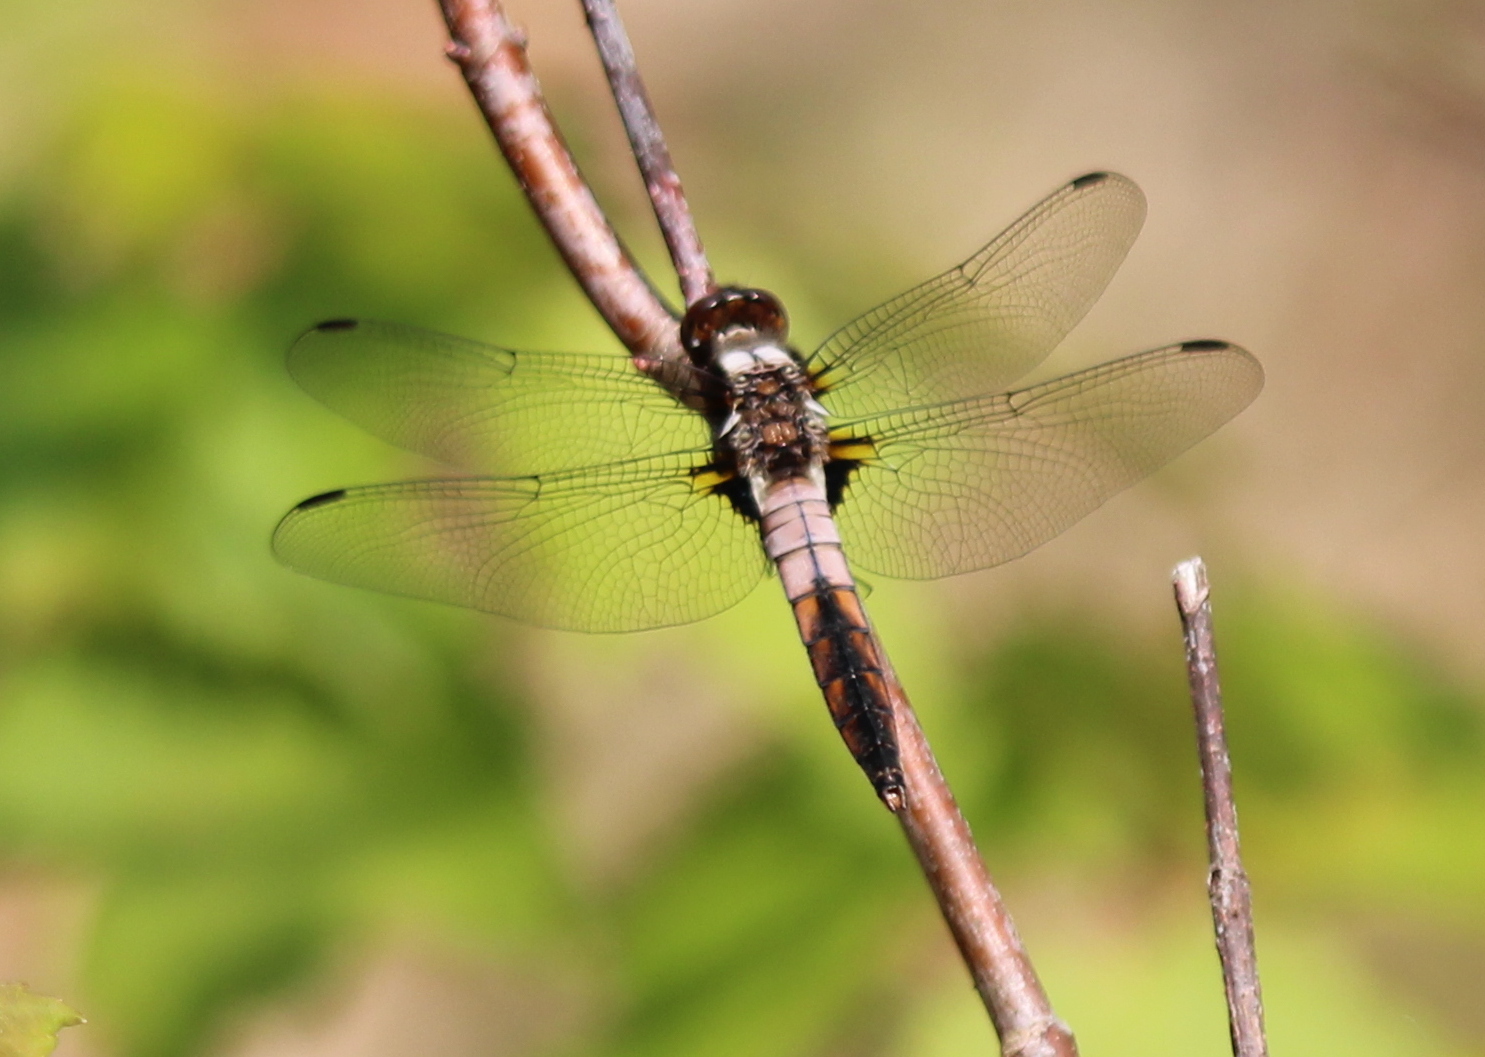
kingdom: Animalia
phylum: Arthropoda
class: Insecta
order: Odonata
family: Libellulidae
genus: Ladona
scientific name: Ladona julia
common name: Chalk-fronted corporal
